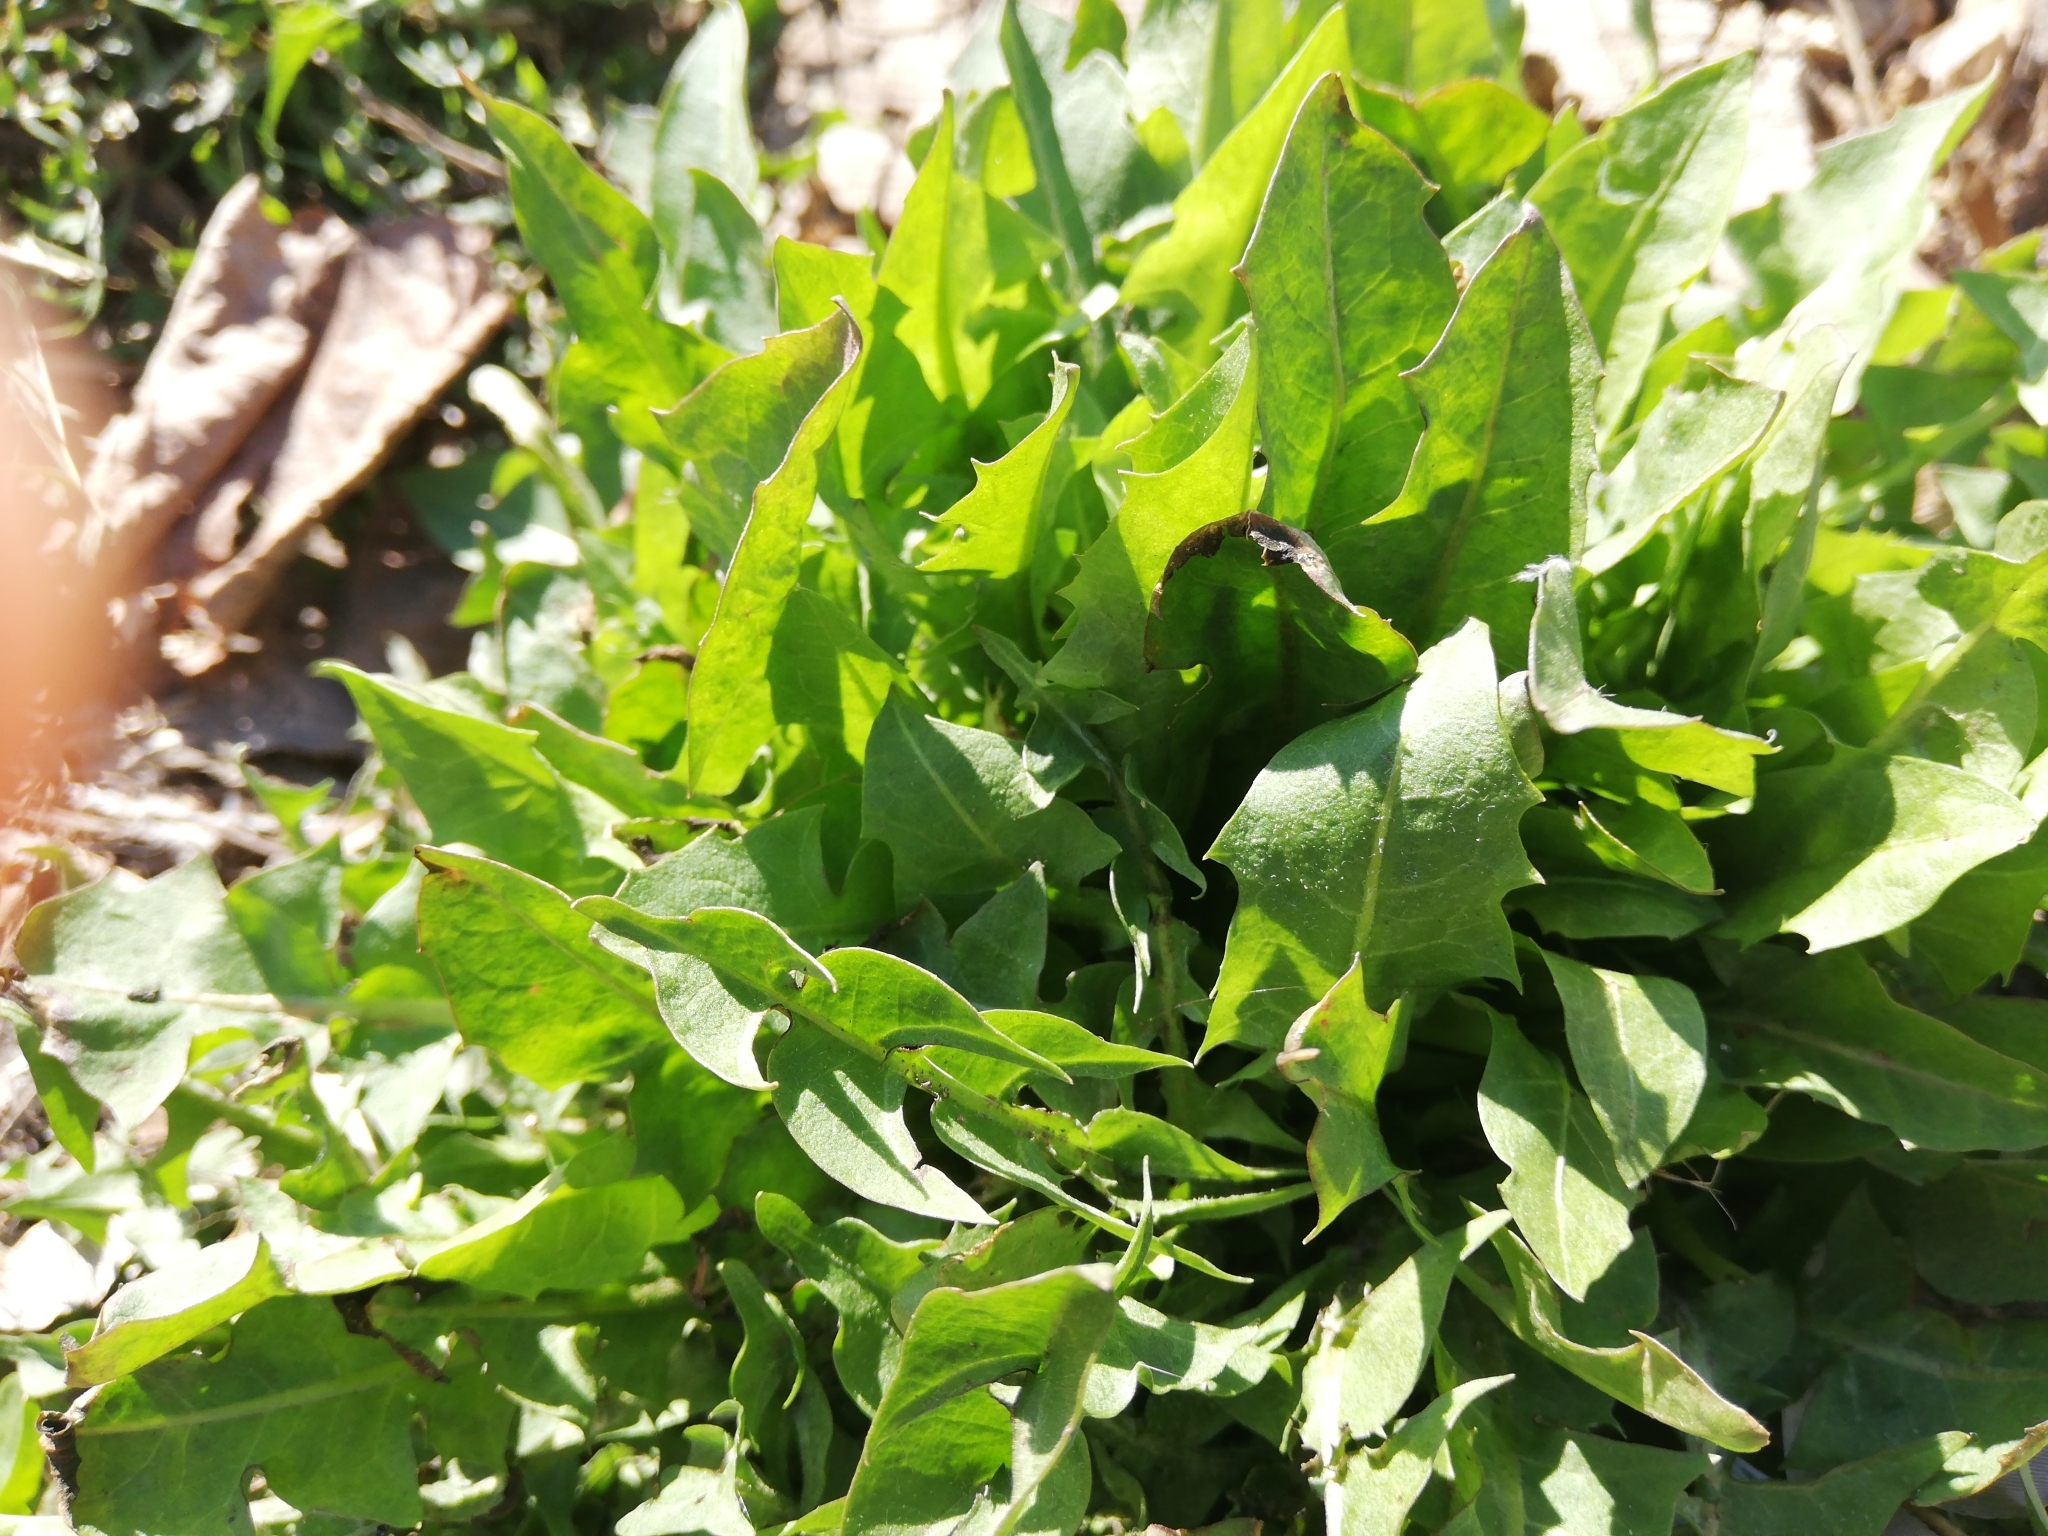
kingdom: Plantae
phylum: Tracheophyta
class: Magnoliopsida
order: Asterales
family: Asteraceae
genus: Taraxacum
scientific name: Taraxacum officinale
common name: Common dandelion
